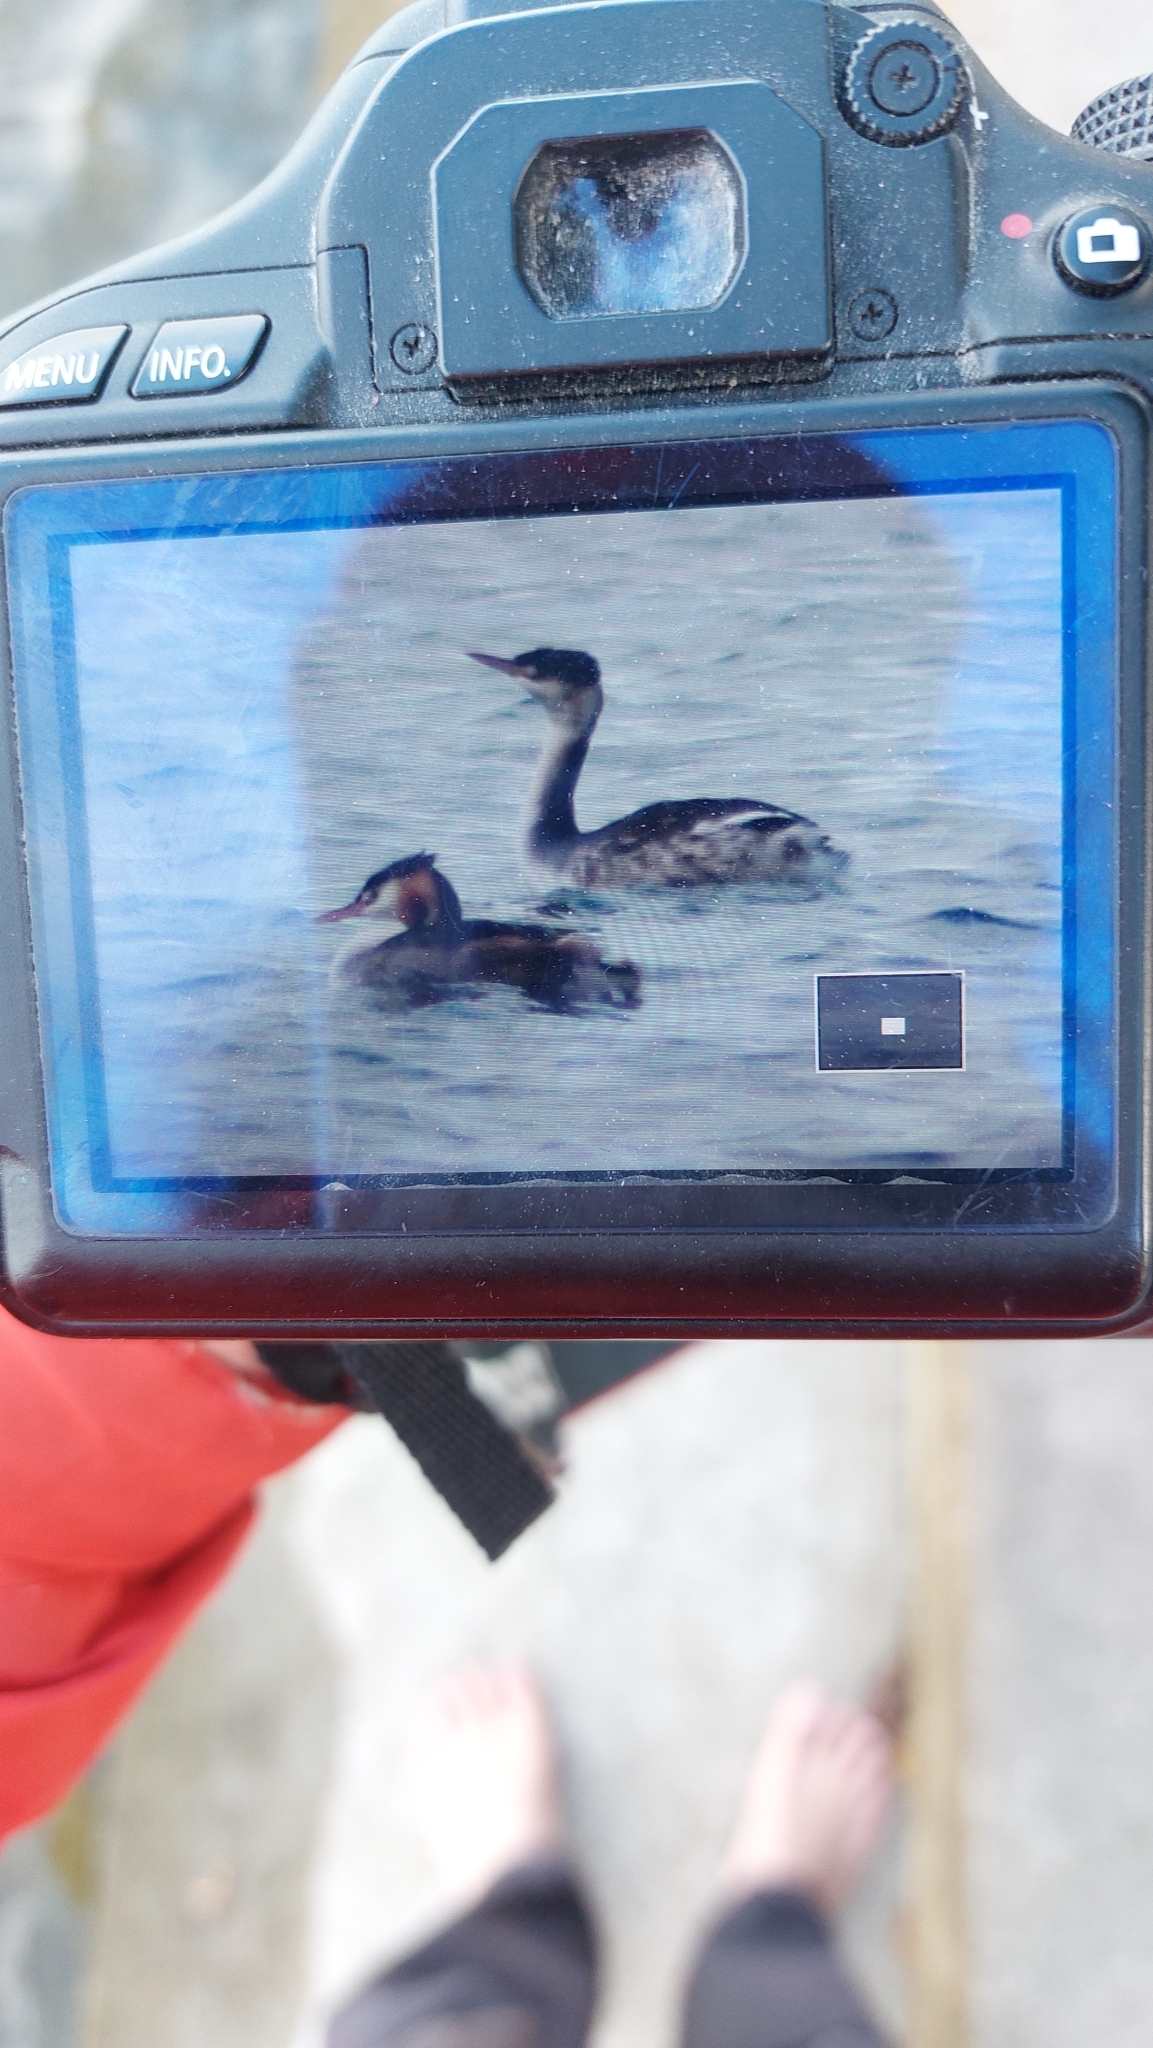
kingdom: Animalia
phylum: Chordata
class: Aves
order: Podicipediformes
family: Podicipedidae
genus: Podiceps
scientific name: Podiceps cristatus
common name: Great crested grebe
